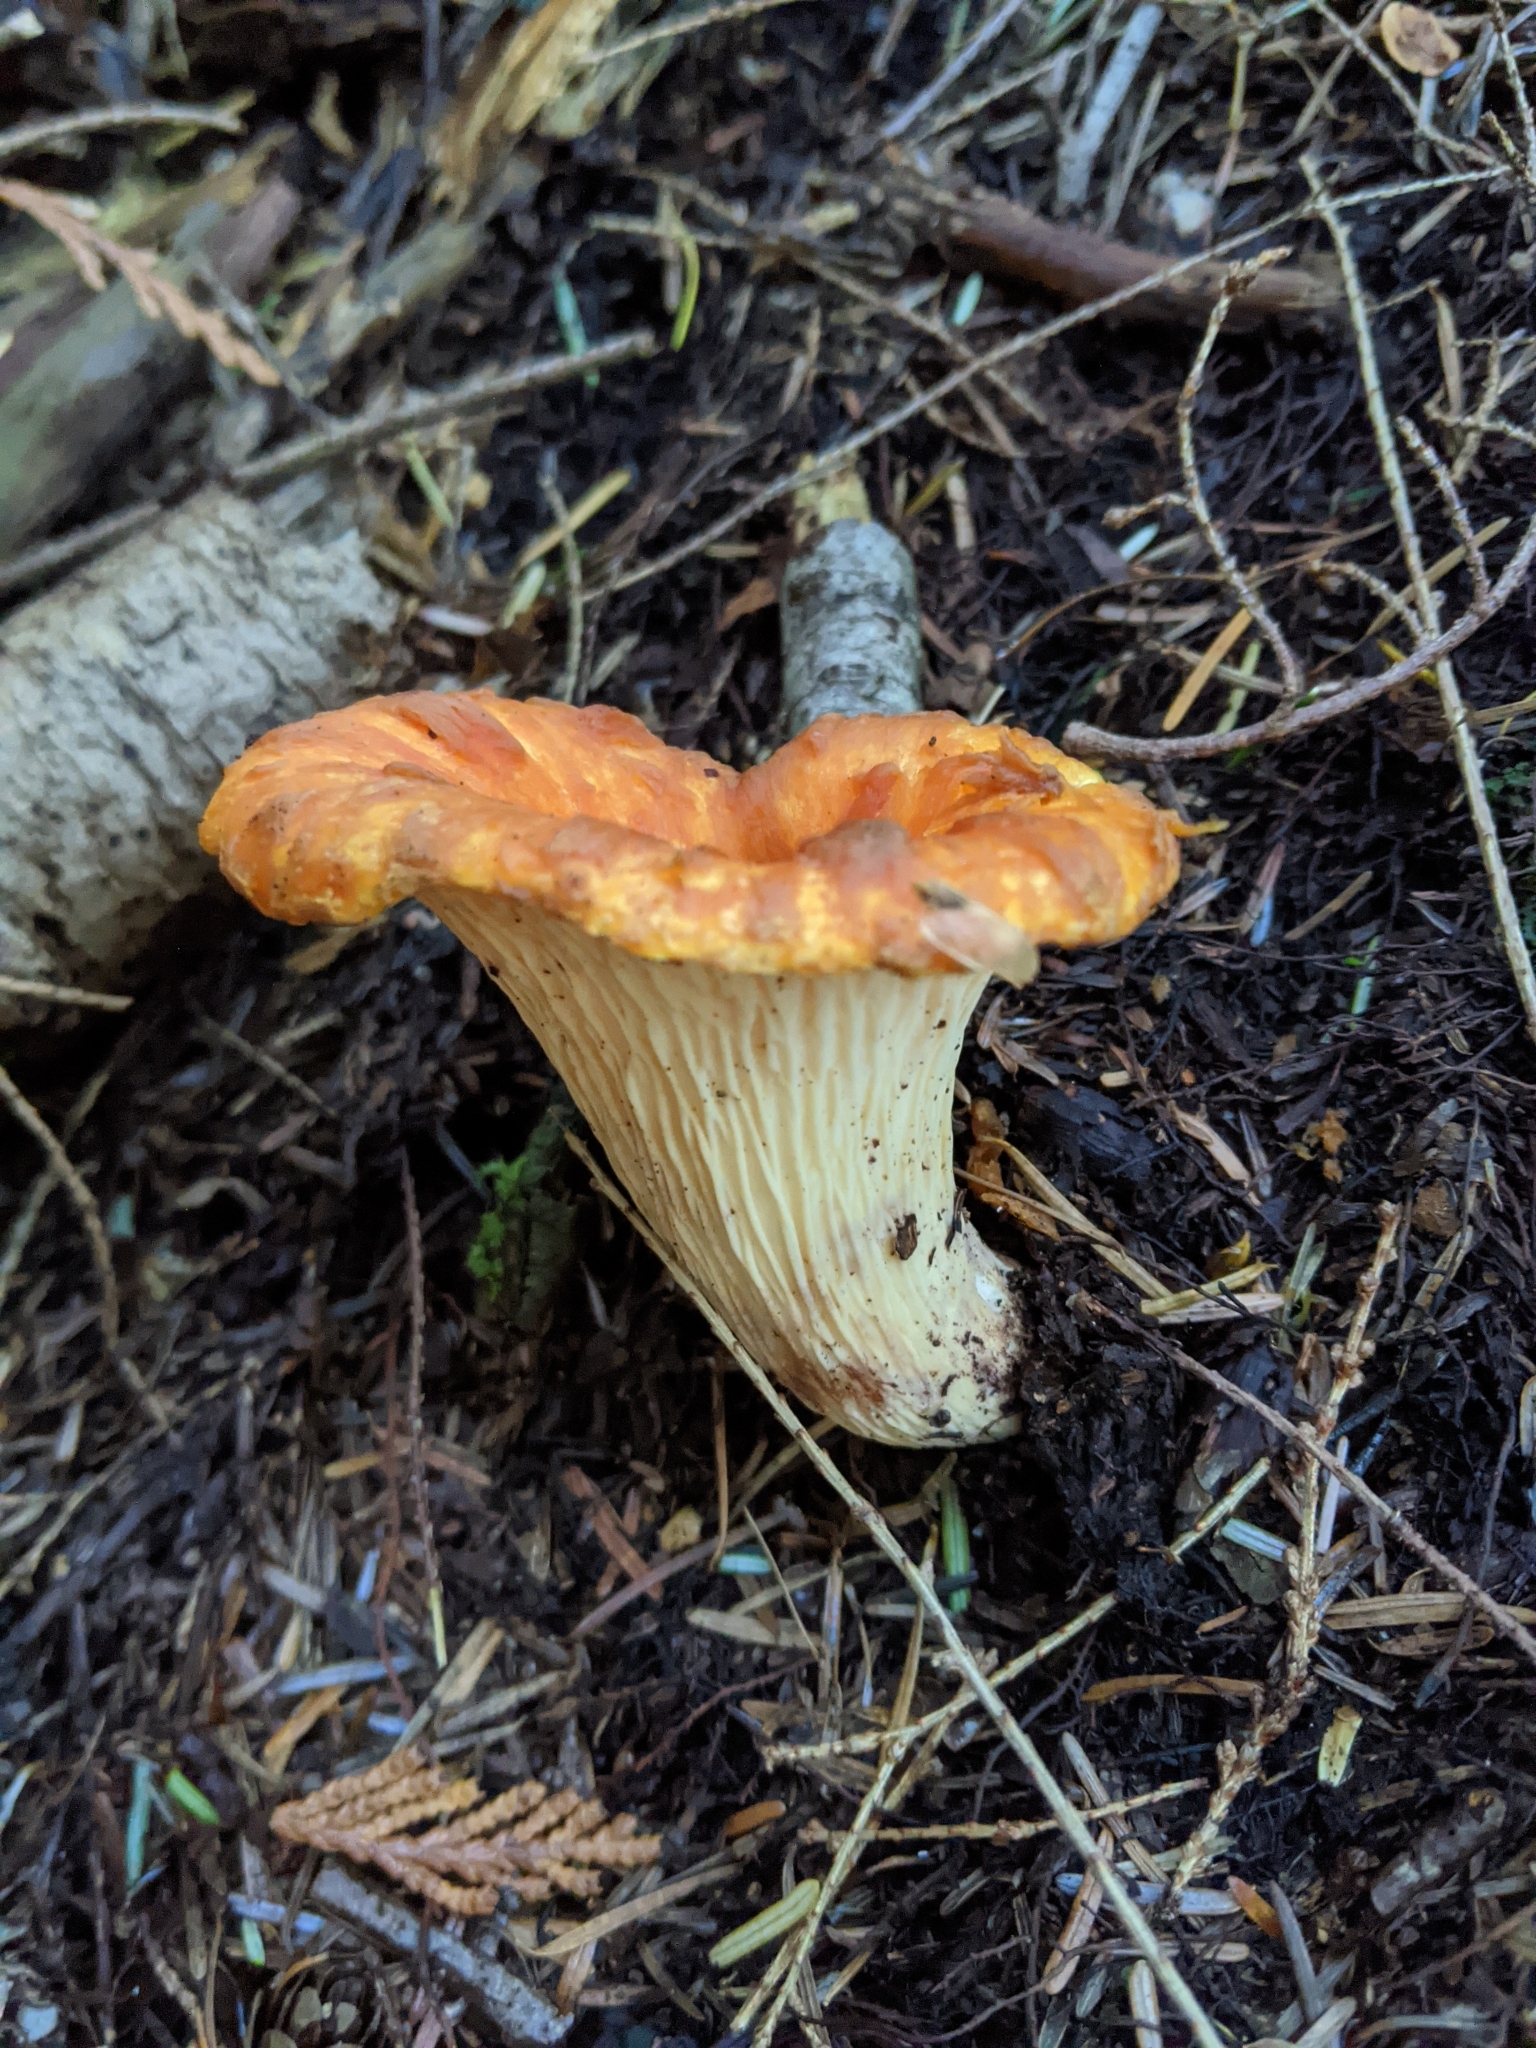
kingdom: Fungi
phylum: Basidiomycota
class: Agaricomycetes
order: Gomphales
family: Gomphaceae
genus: Turbinellus
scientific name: Turbinellus floccosus
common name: Scaly chanterelle
